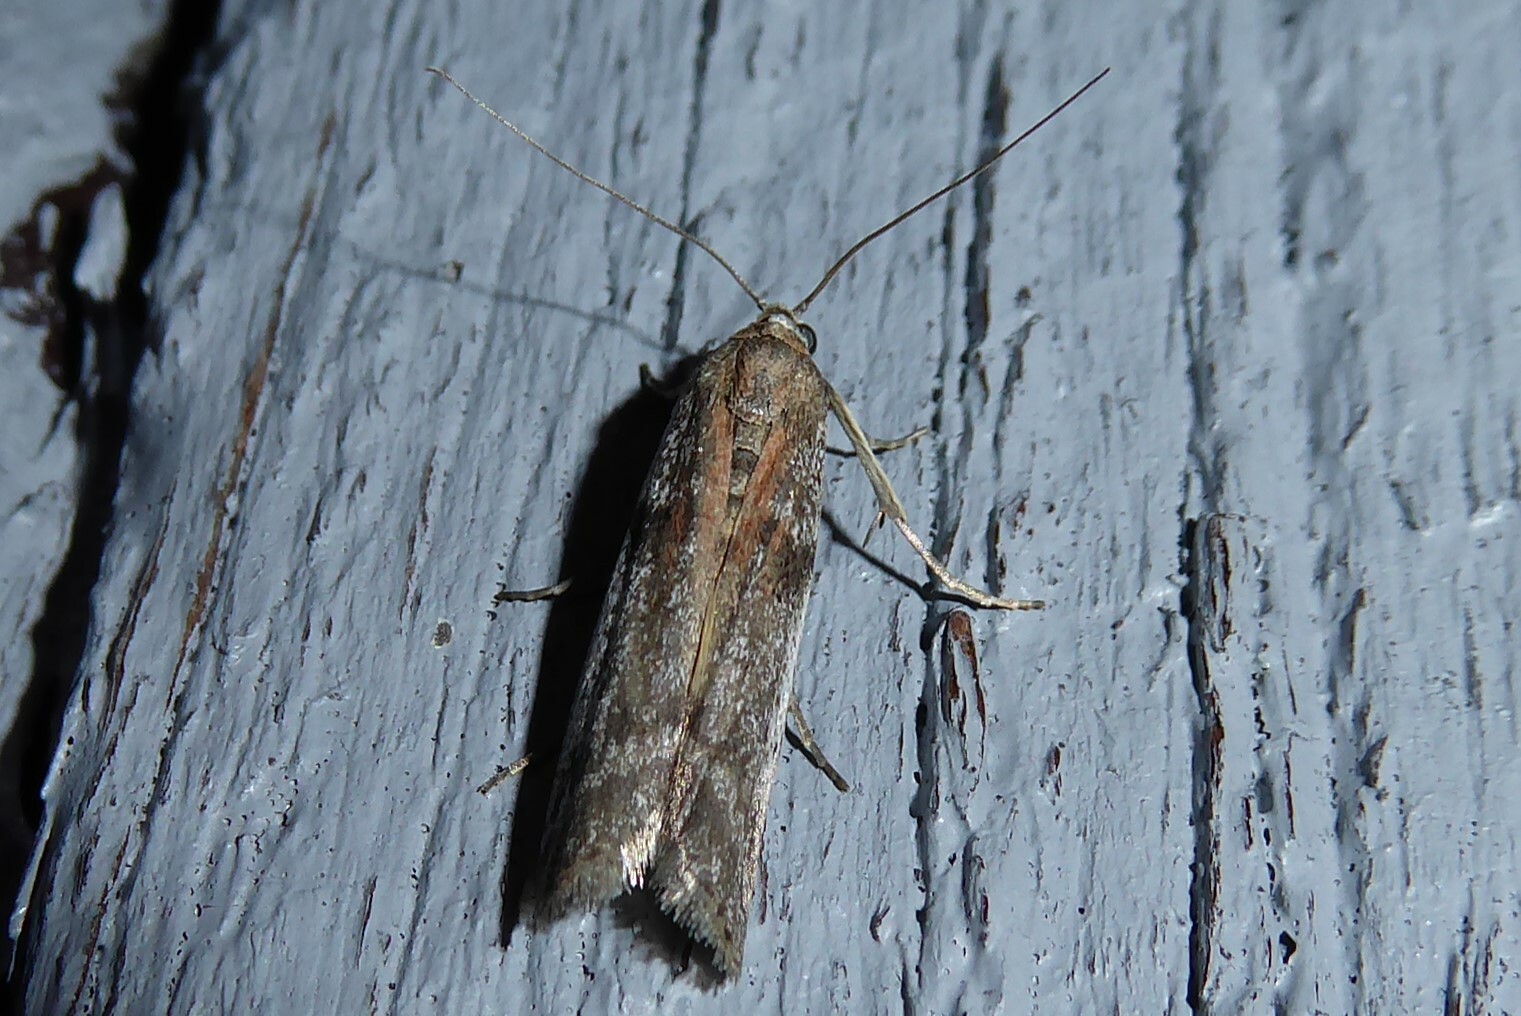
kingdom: Animalia
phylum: Arthropoda
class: Insecta
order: Lepidoptera
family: Pyralidae
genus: Patagoniodes
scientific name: Patagoniodes farinaria
